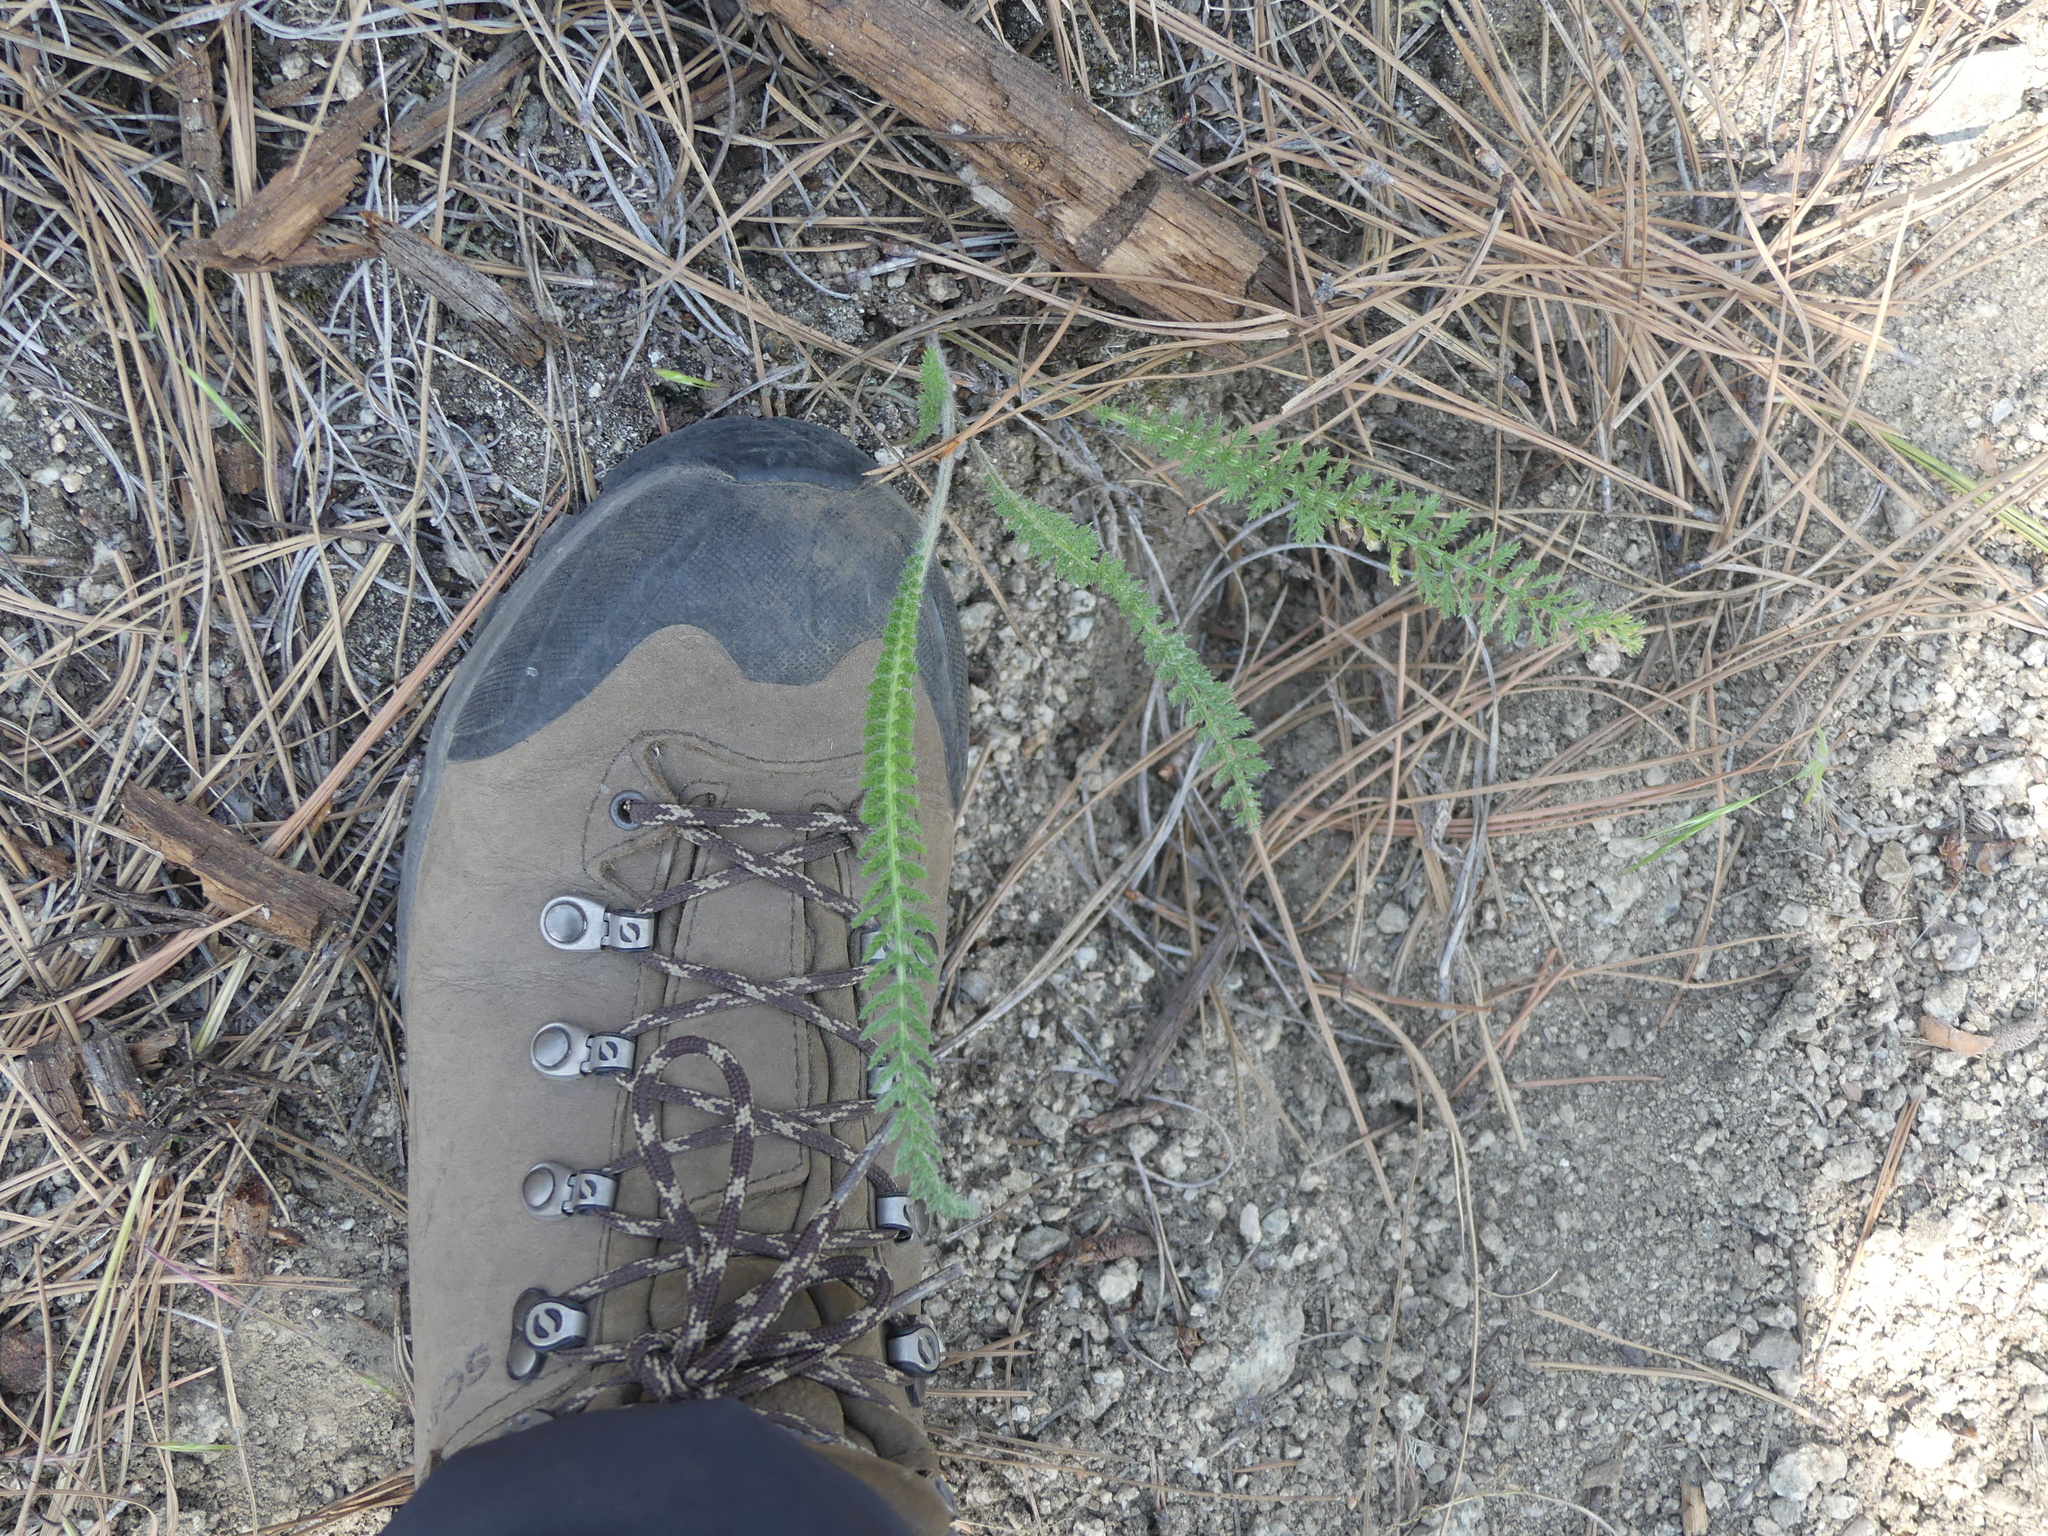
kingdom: Plantae
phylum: Tracheophyta
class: Magnoliopsida
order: Asterales
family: Asteraceae
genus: Achillea
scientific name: Achillea millefolium
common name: Yarrow
